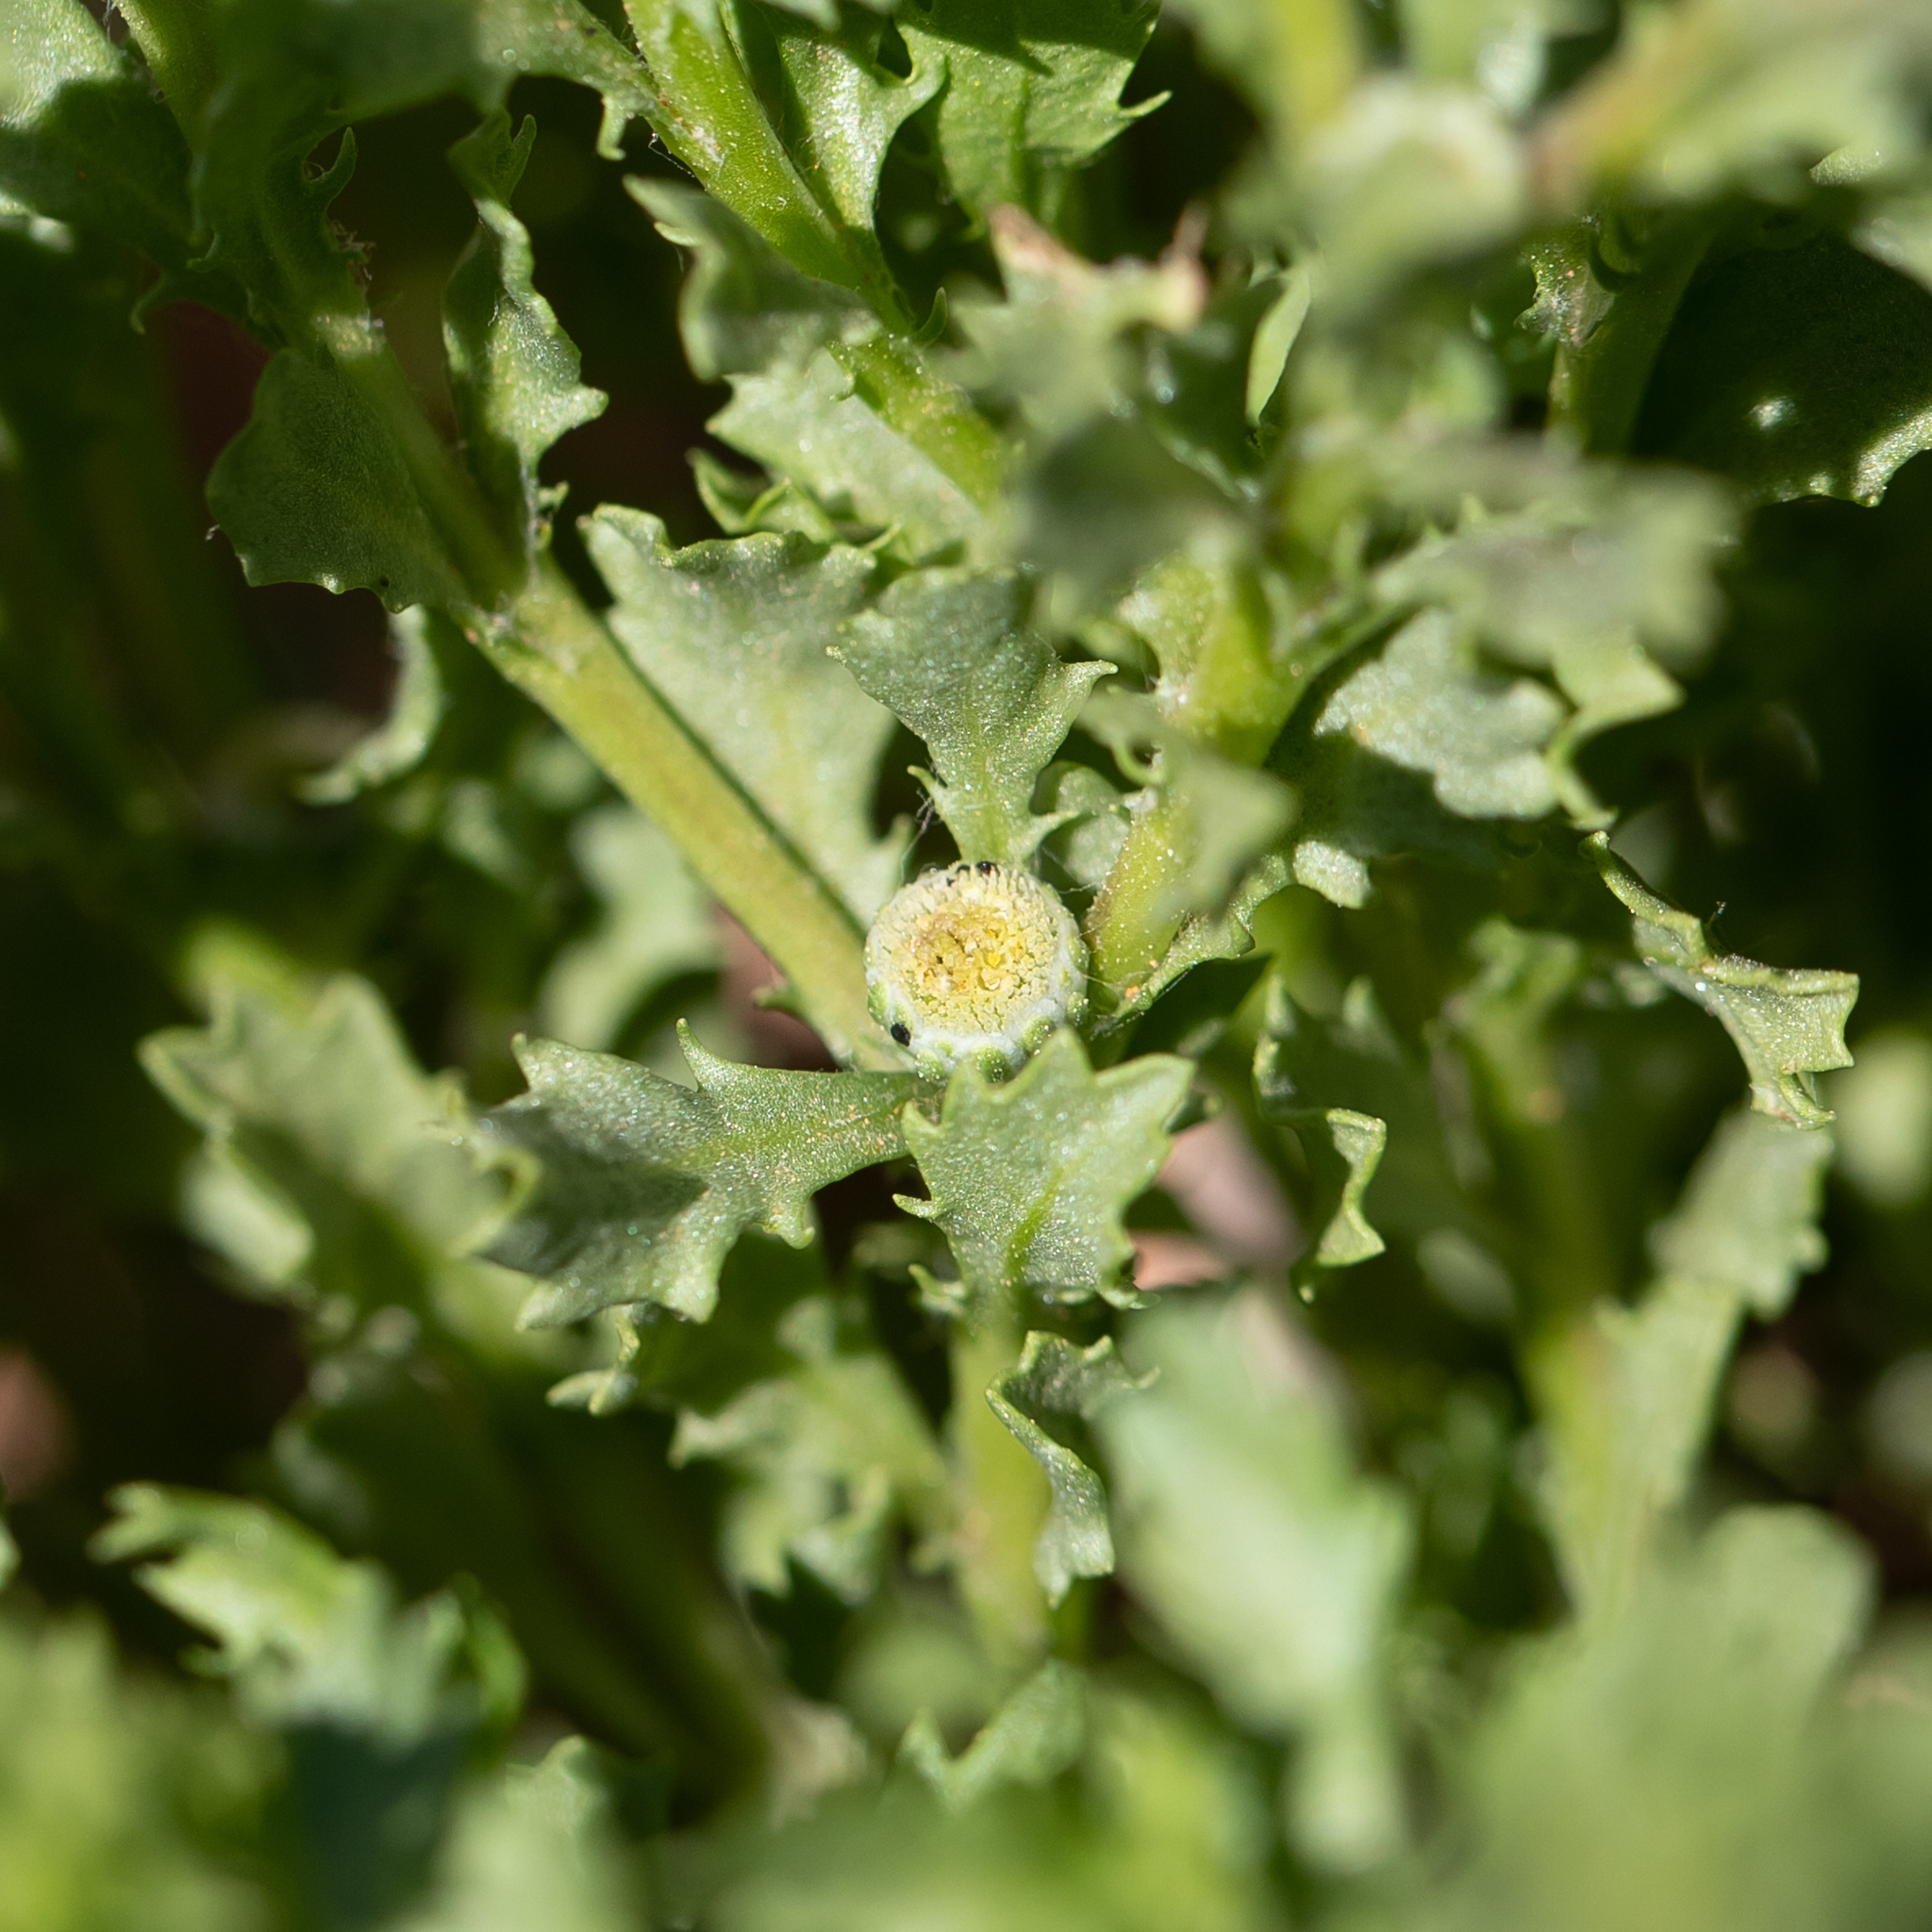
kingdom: Plantae
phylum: Tracheophyta
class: Magnoliopsida
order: Asterales
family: Asteraceae
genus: Centipeda
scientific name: Centipeda cunninghamii
